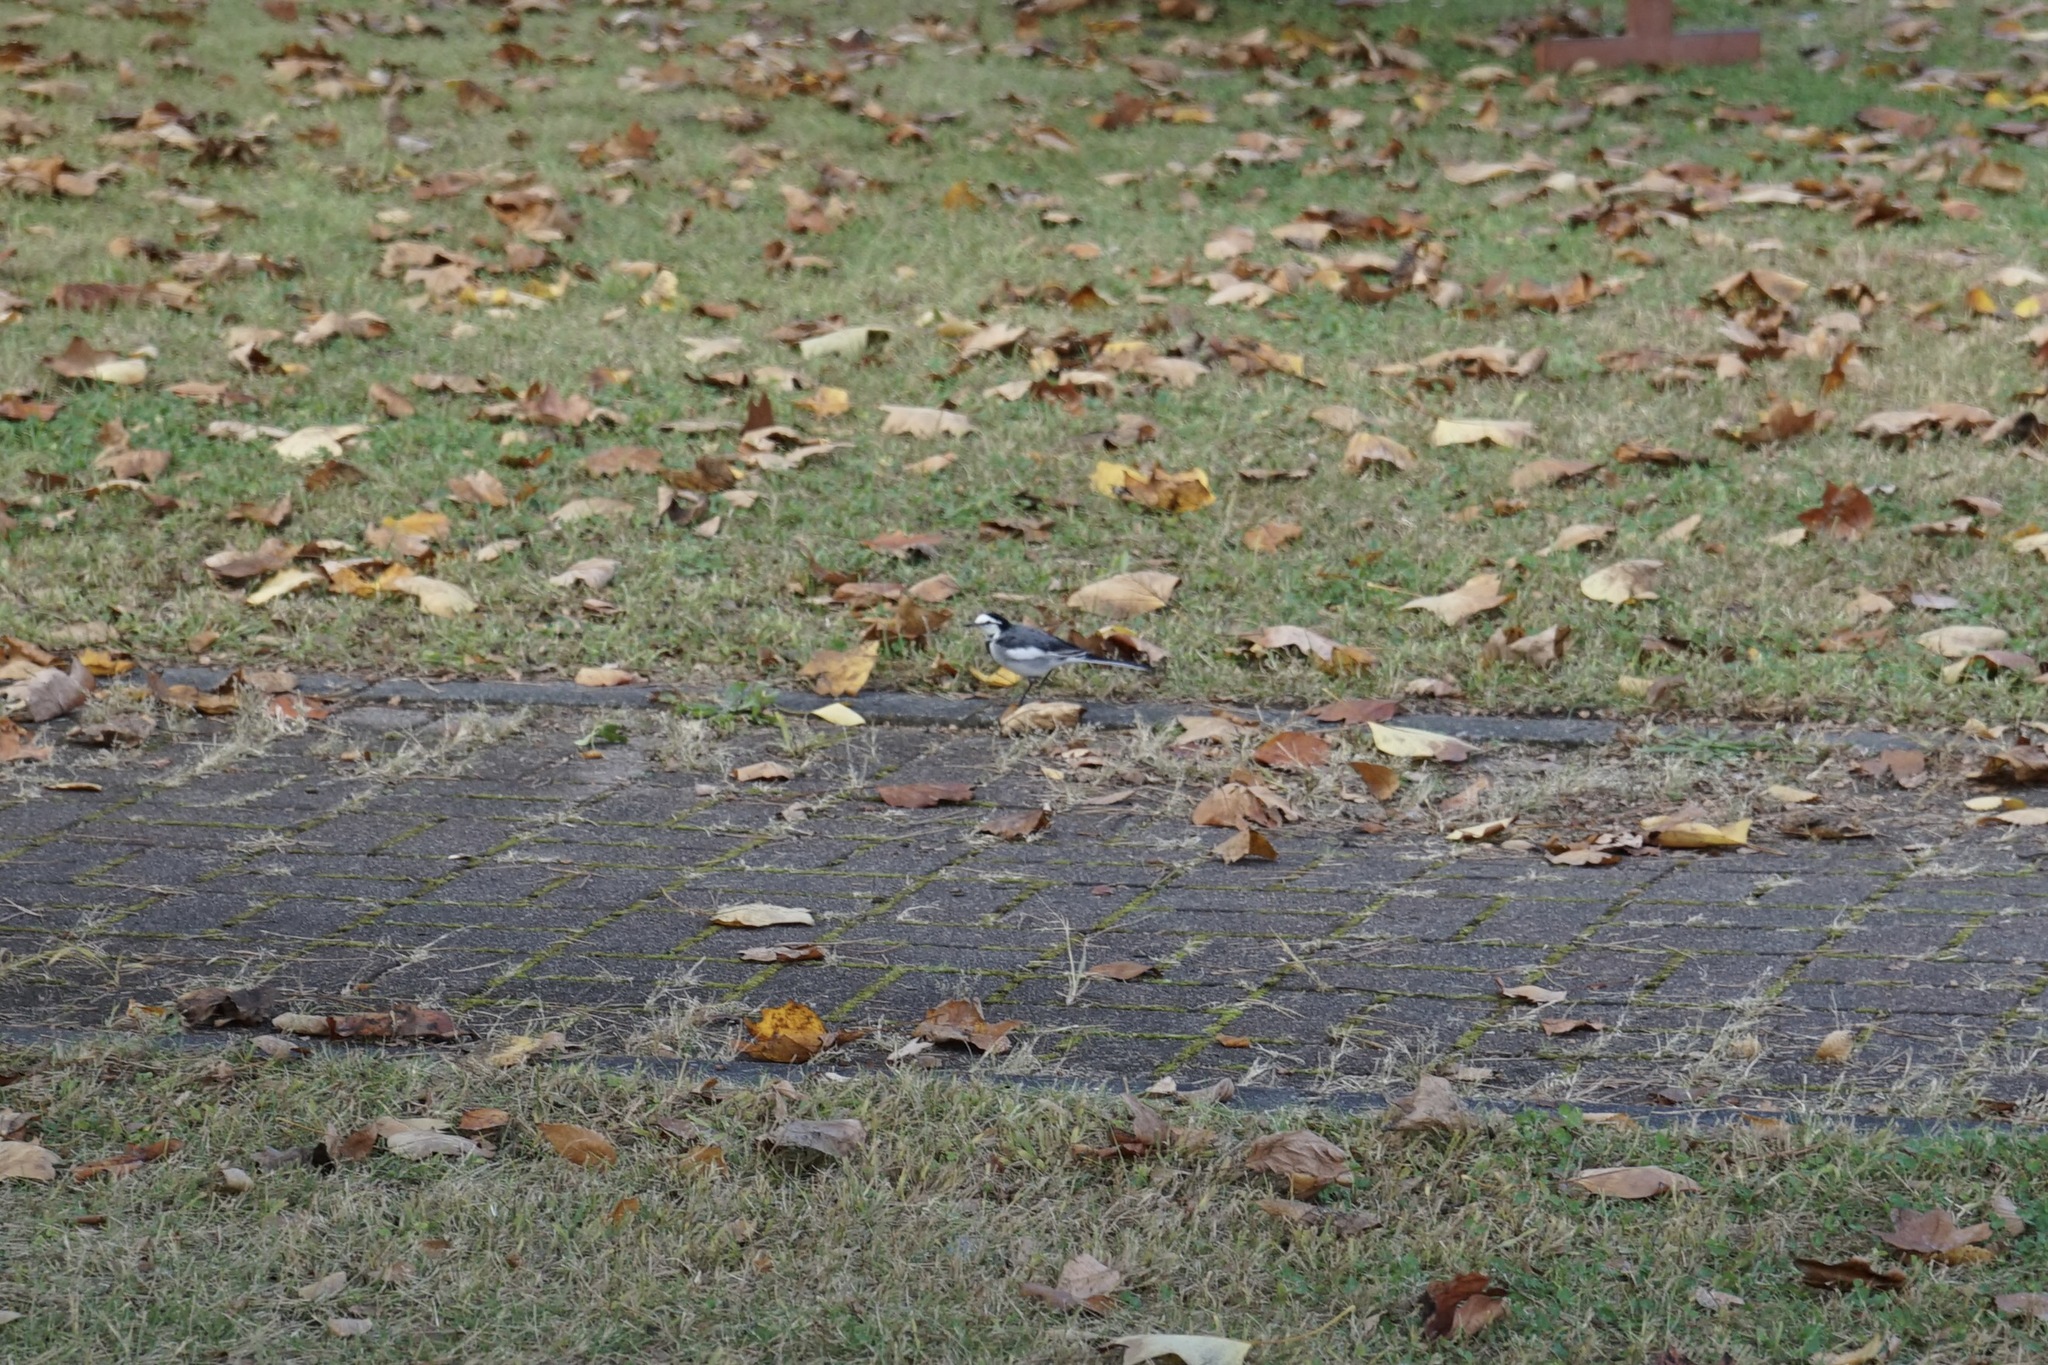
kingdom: Animalia
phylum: Chordata
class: Aves
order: Passeriformes
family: Motacillidae
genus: Motacilla
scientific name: Motacilla alba
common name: White wagtail
